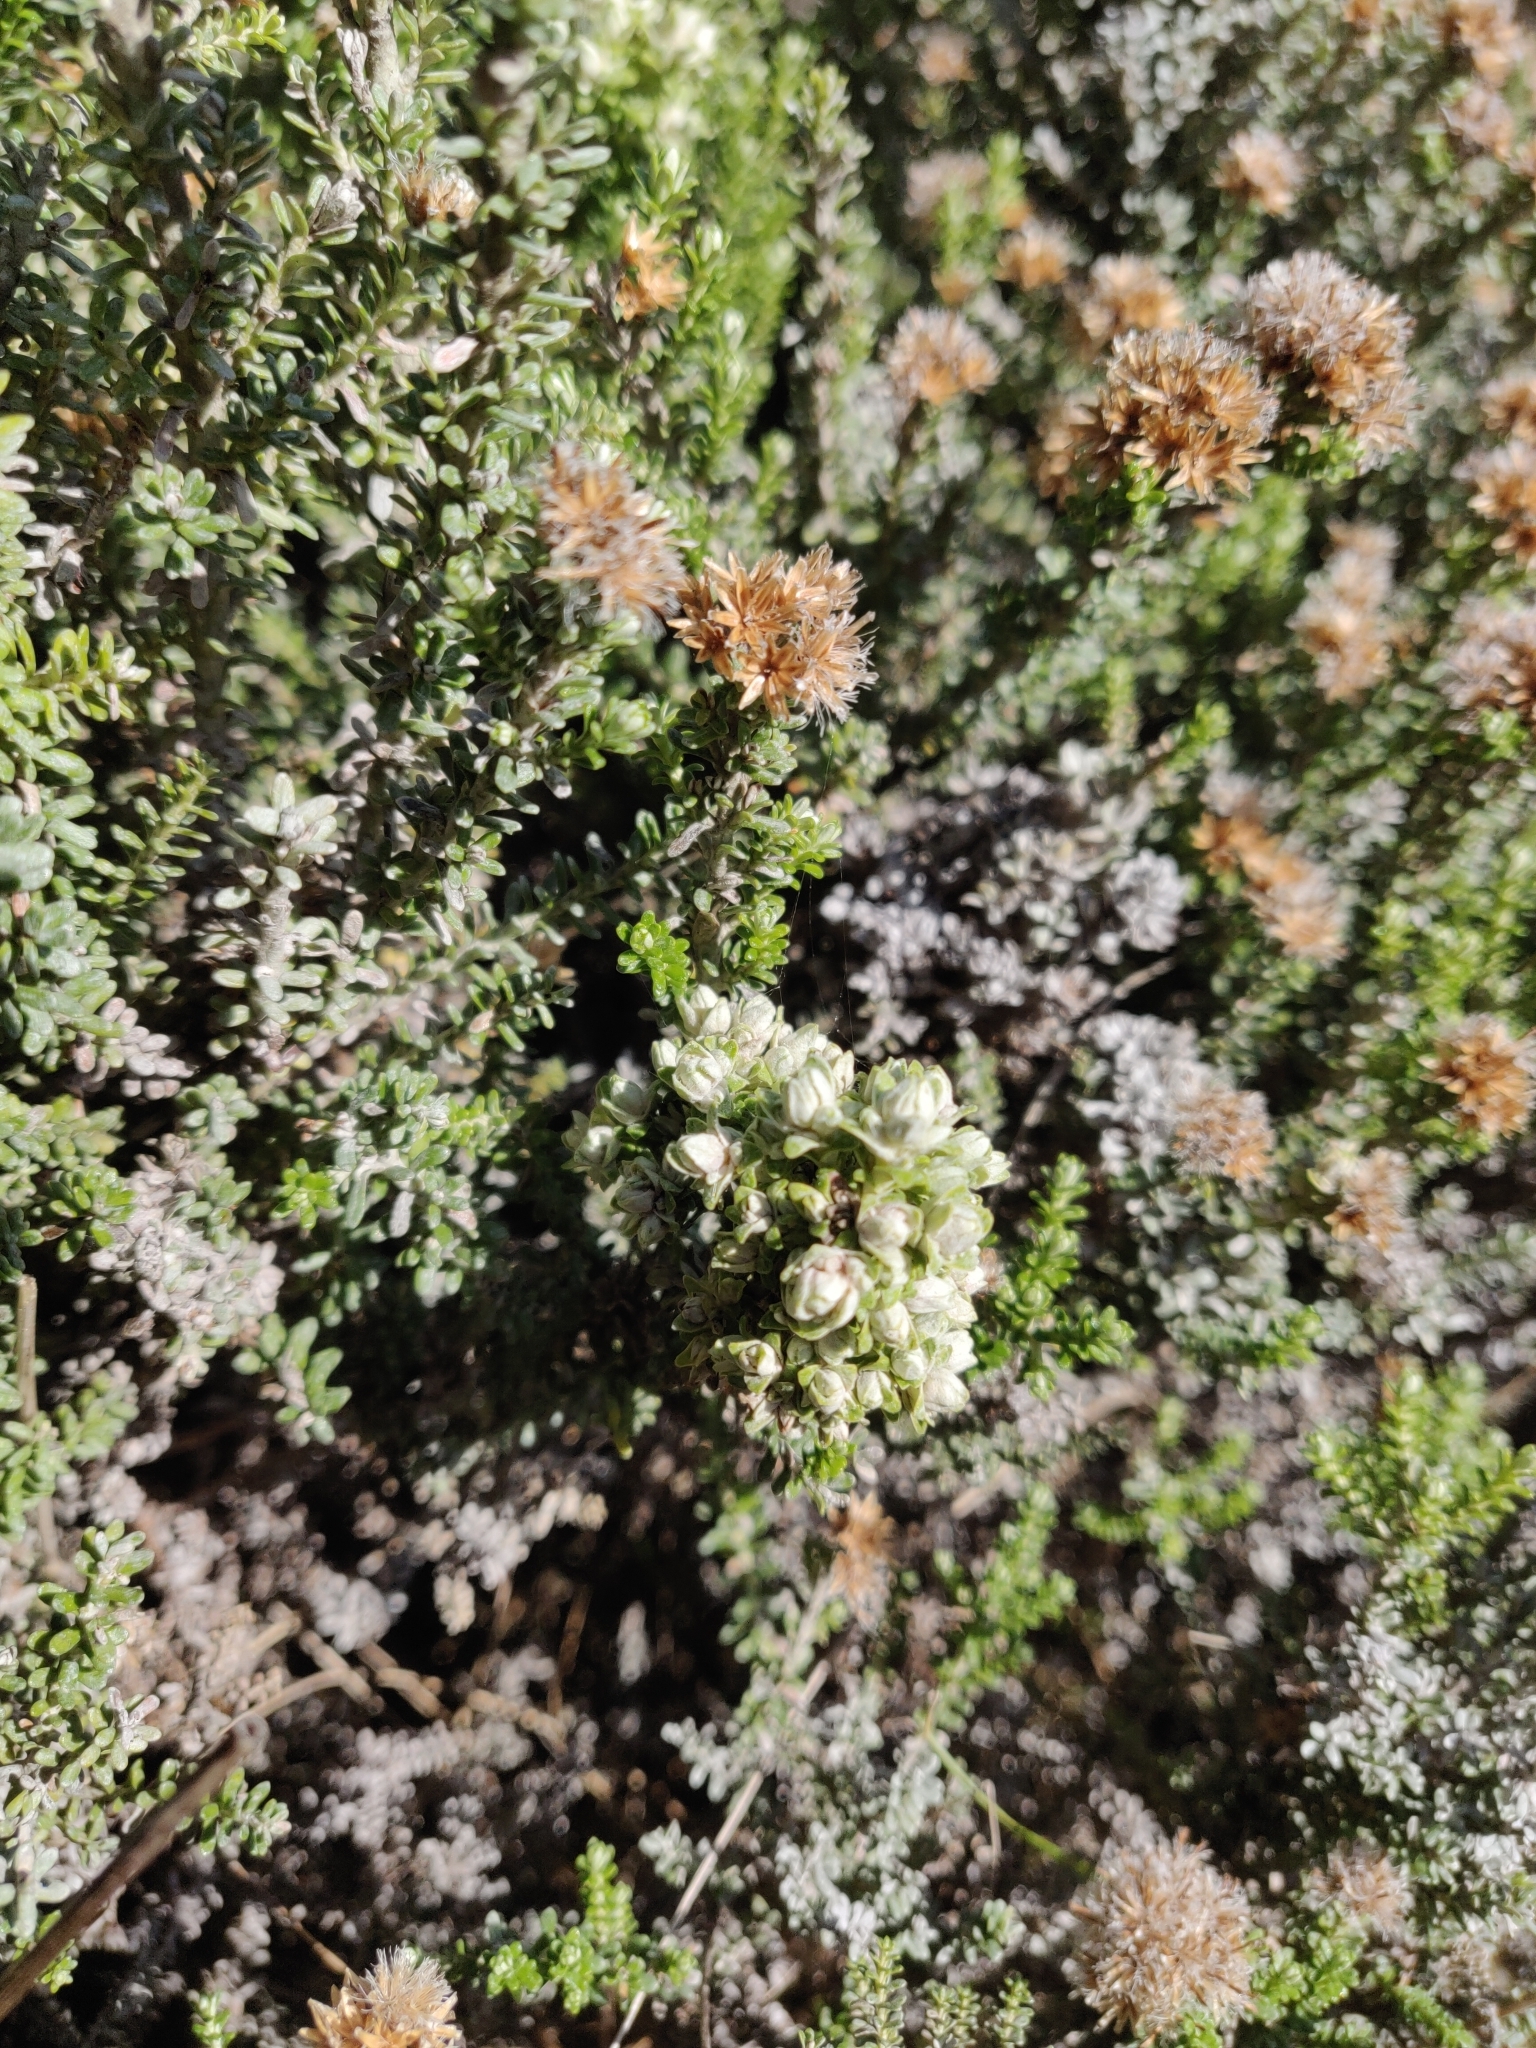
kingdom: Plantae
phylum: Tracheophyta
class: Magnoliopsida
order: Asterales
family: Asteraceae
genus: Ozothamnus
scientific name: Ozothamnus leptophyllus
